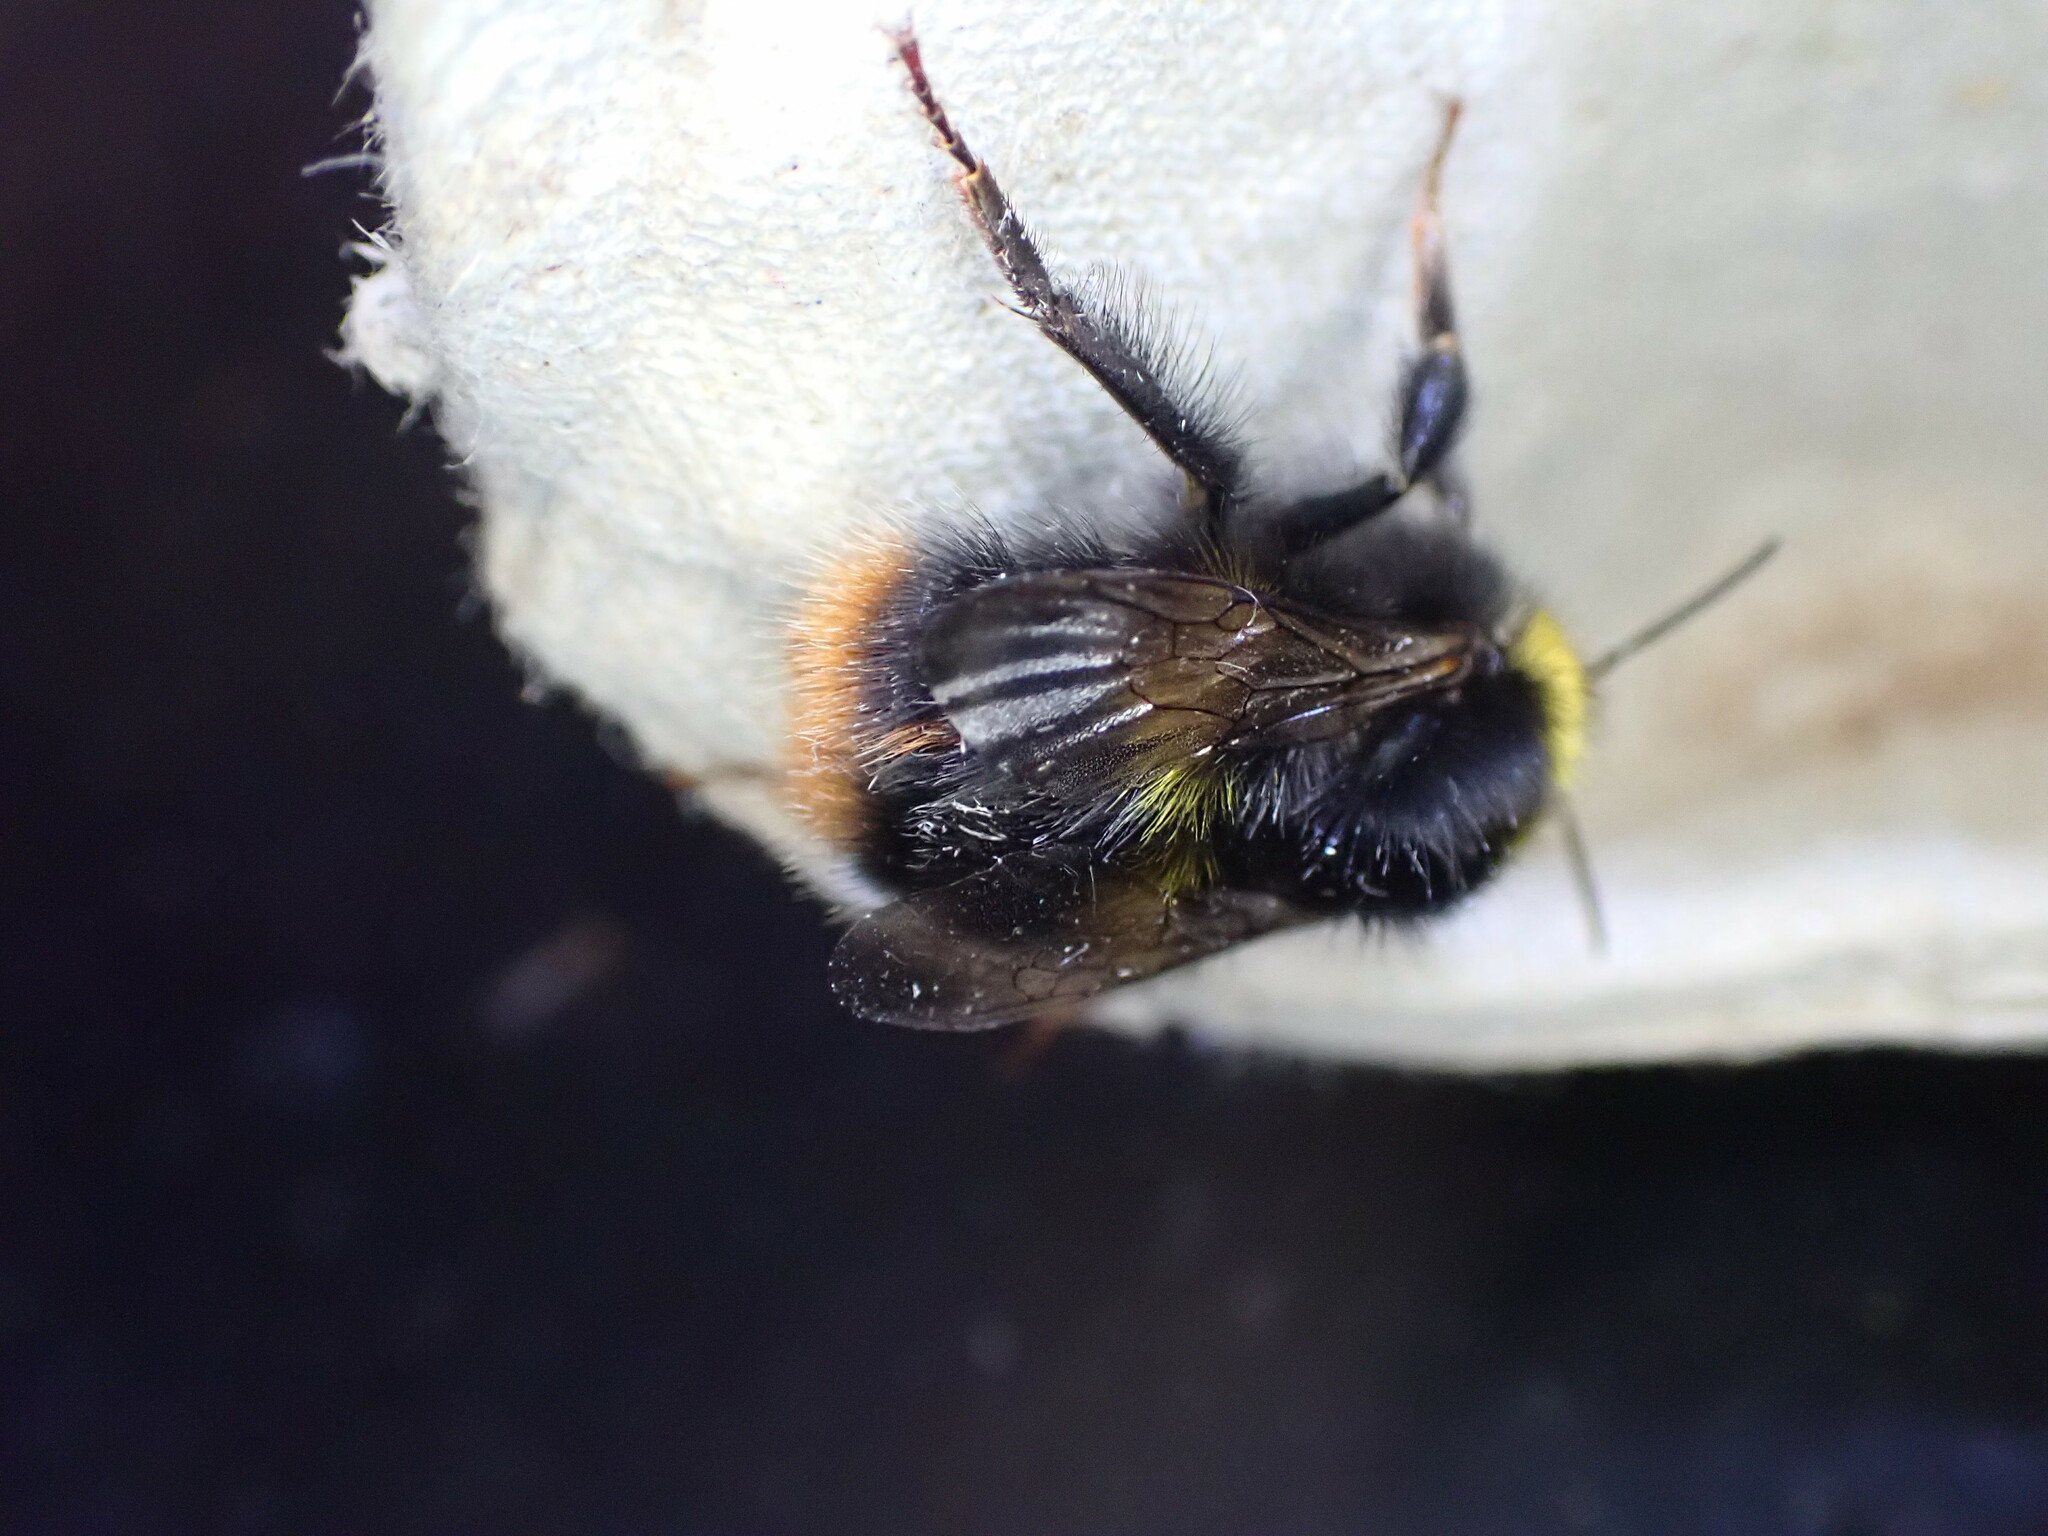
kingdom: Animalia
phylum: Arthropoda
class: Insecta
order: Hymenoptera
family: Apidae
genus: Bombus
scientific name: Bombus pratorum
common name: Early humble-bee
